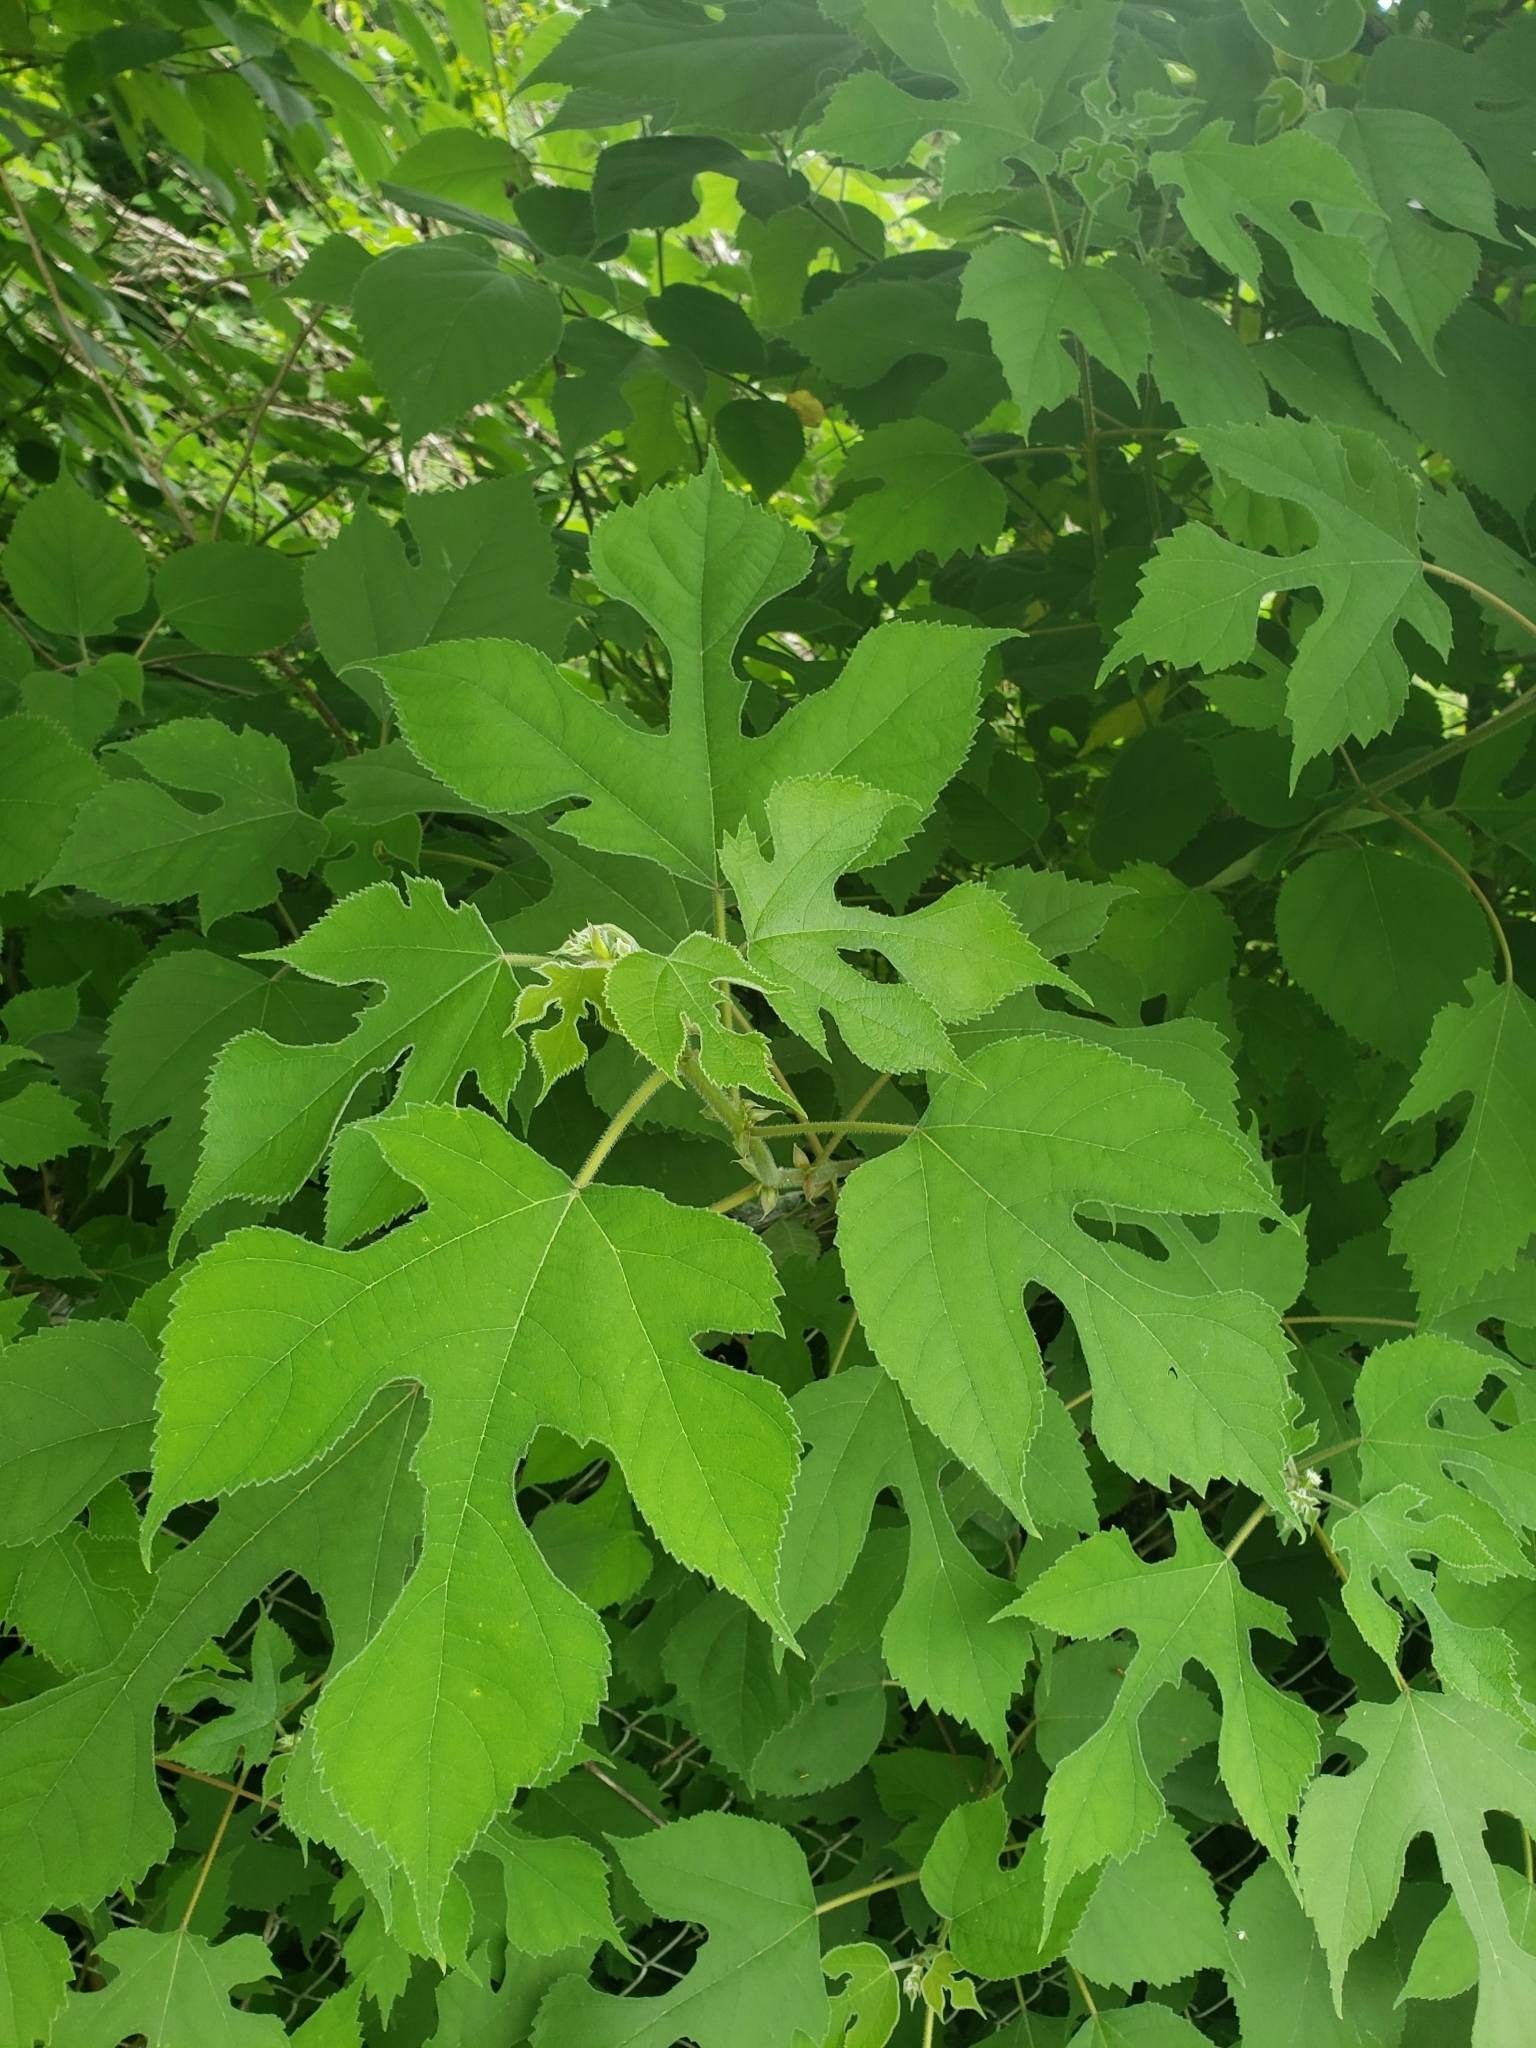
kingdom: Plantae
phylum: Tracheophyta
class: Magnoliopsida
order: Rosales
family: Moraceae
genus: Broussonetia
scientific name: Broussonetia papyrifera
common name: Paper mulberry
